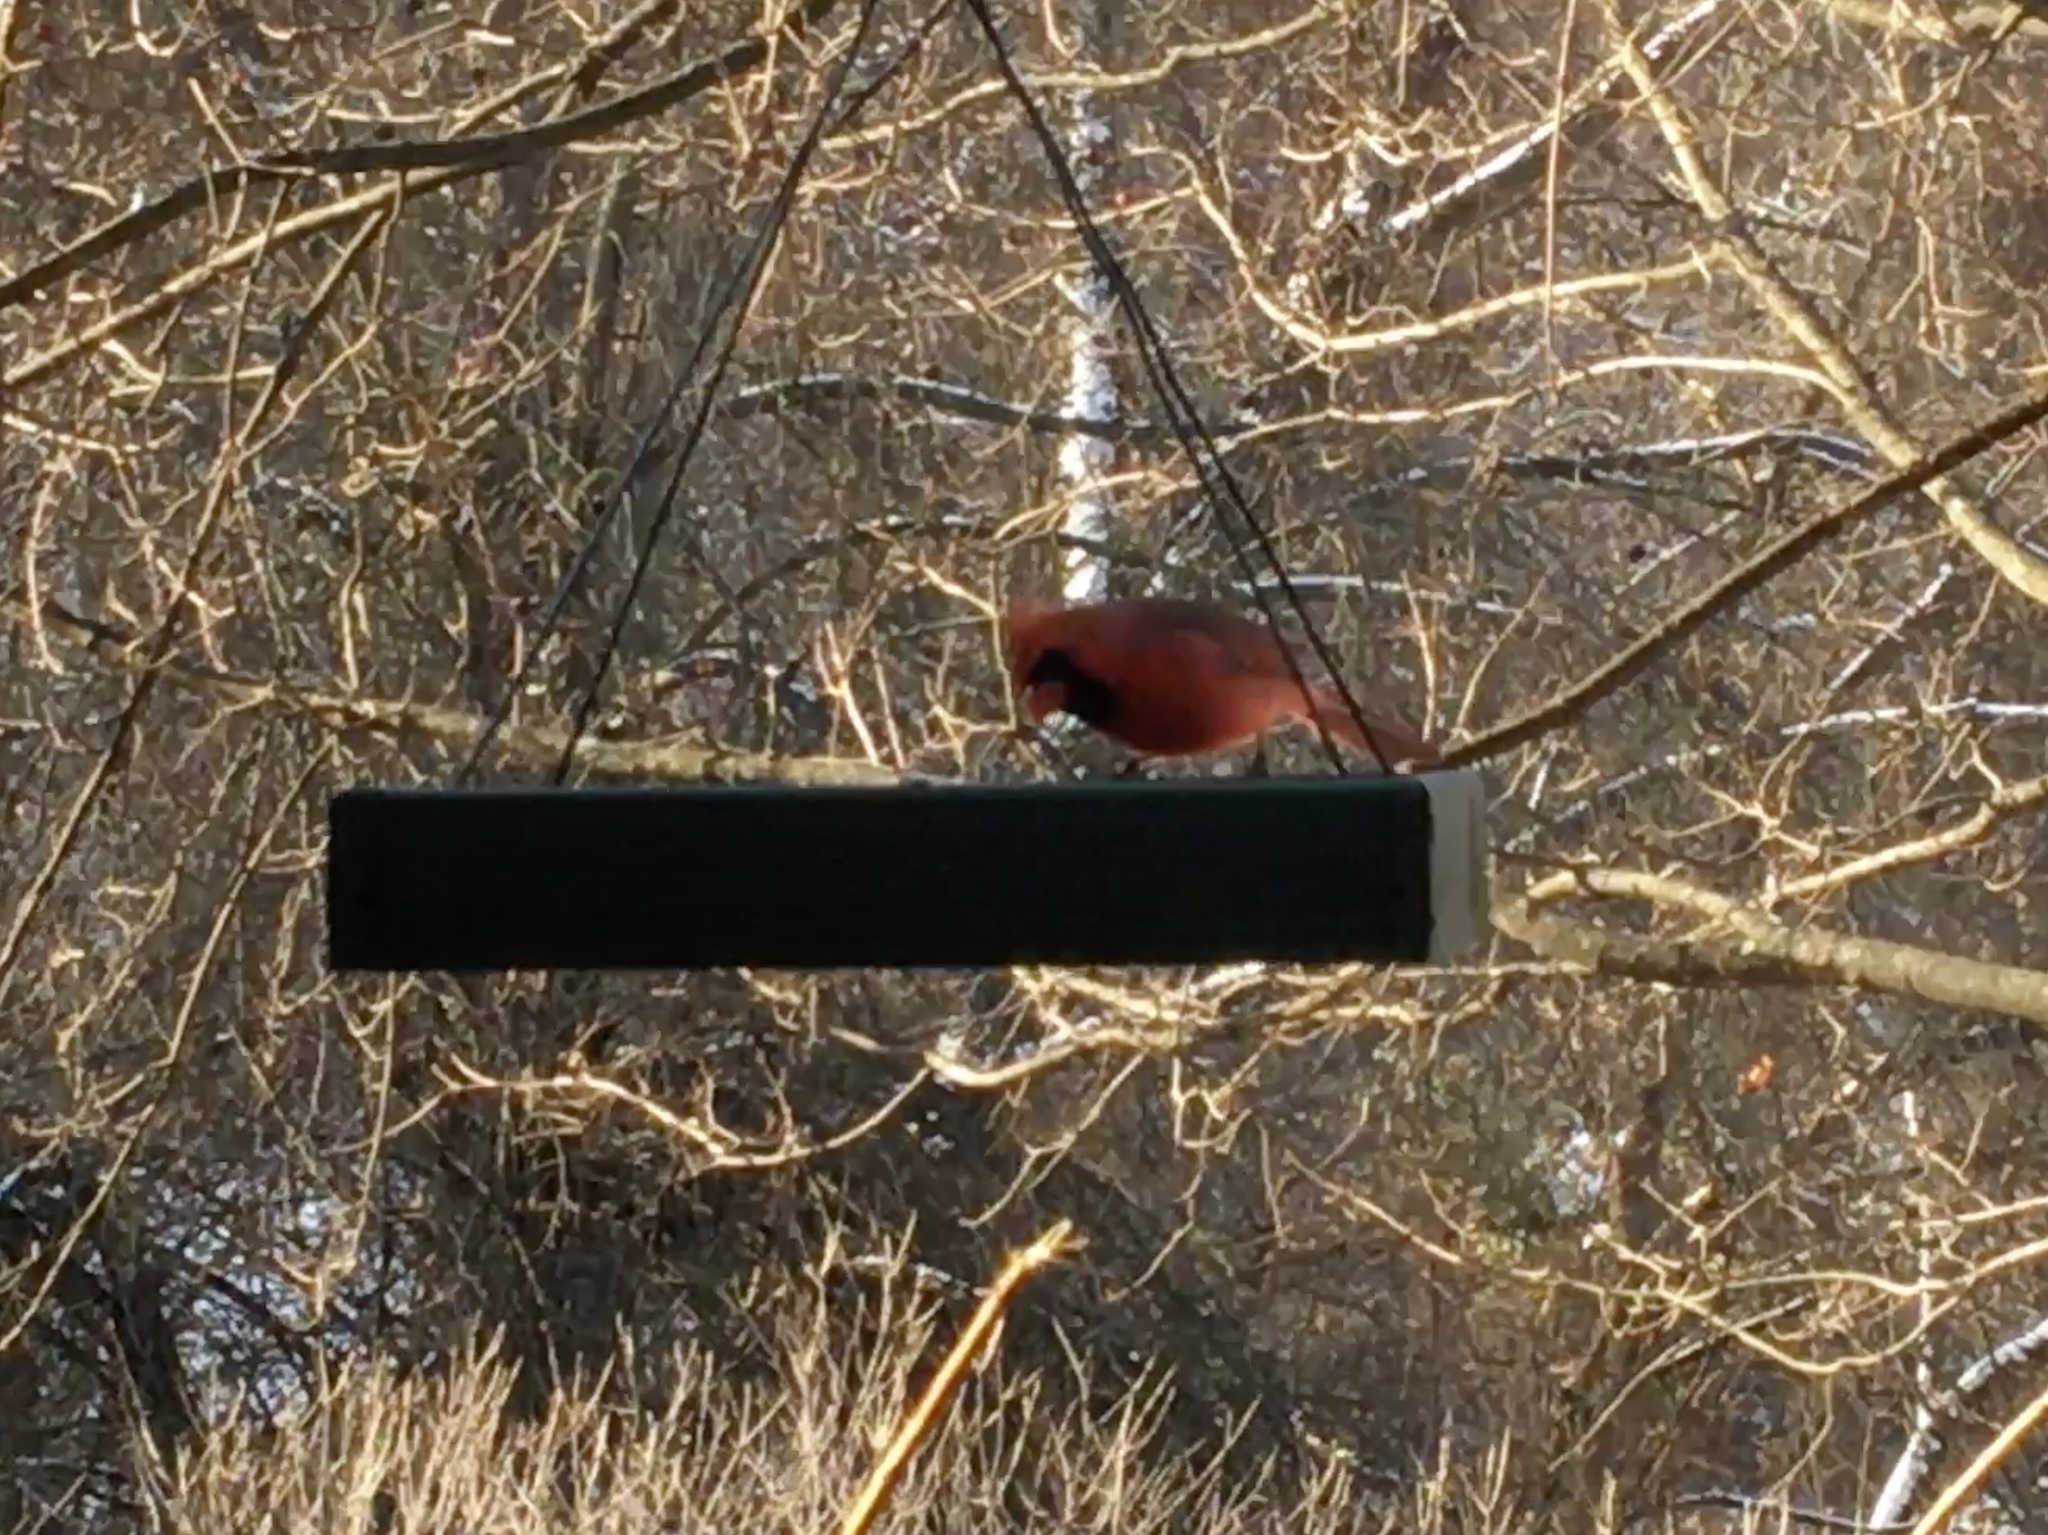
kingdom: Animalia
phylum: Chordata
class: Aves
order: Passeriformes
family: Cardinalidae
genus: Cardinalis
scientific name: Cardinalis cardinalis
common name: Northern cardinal
